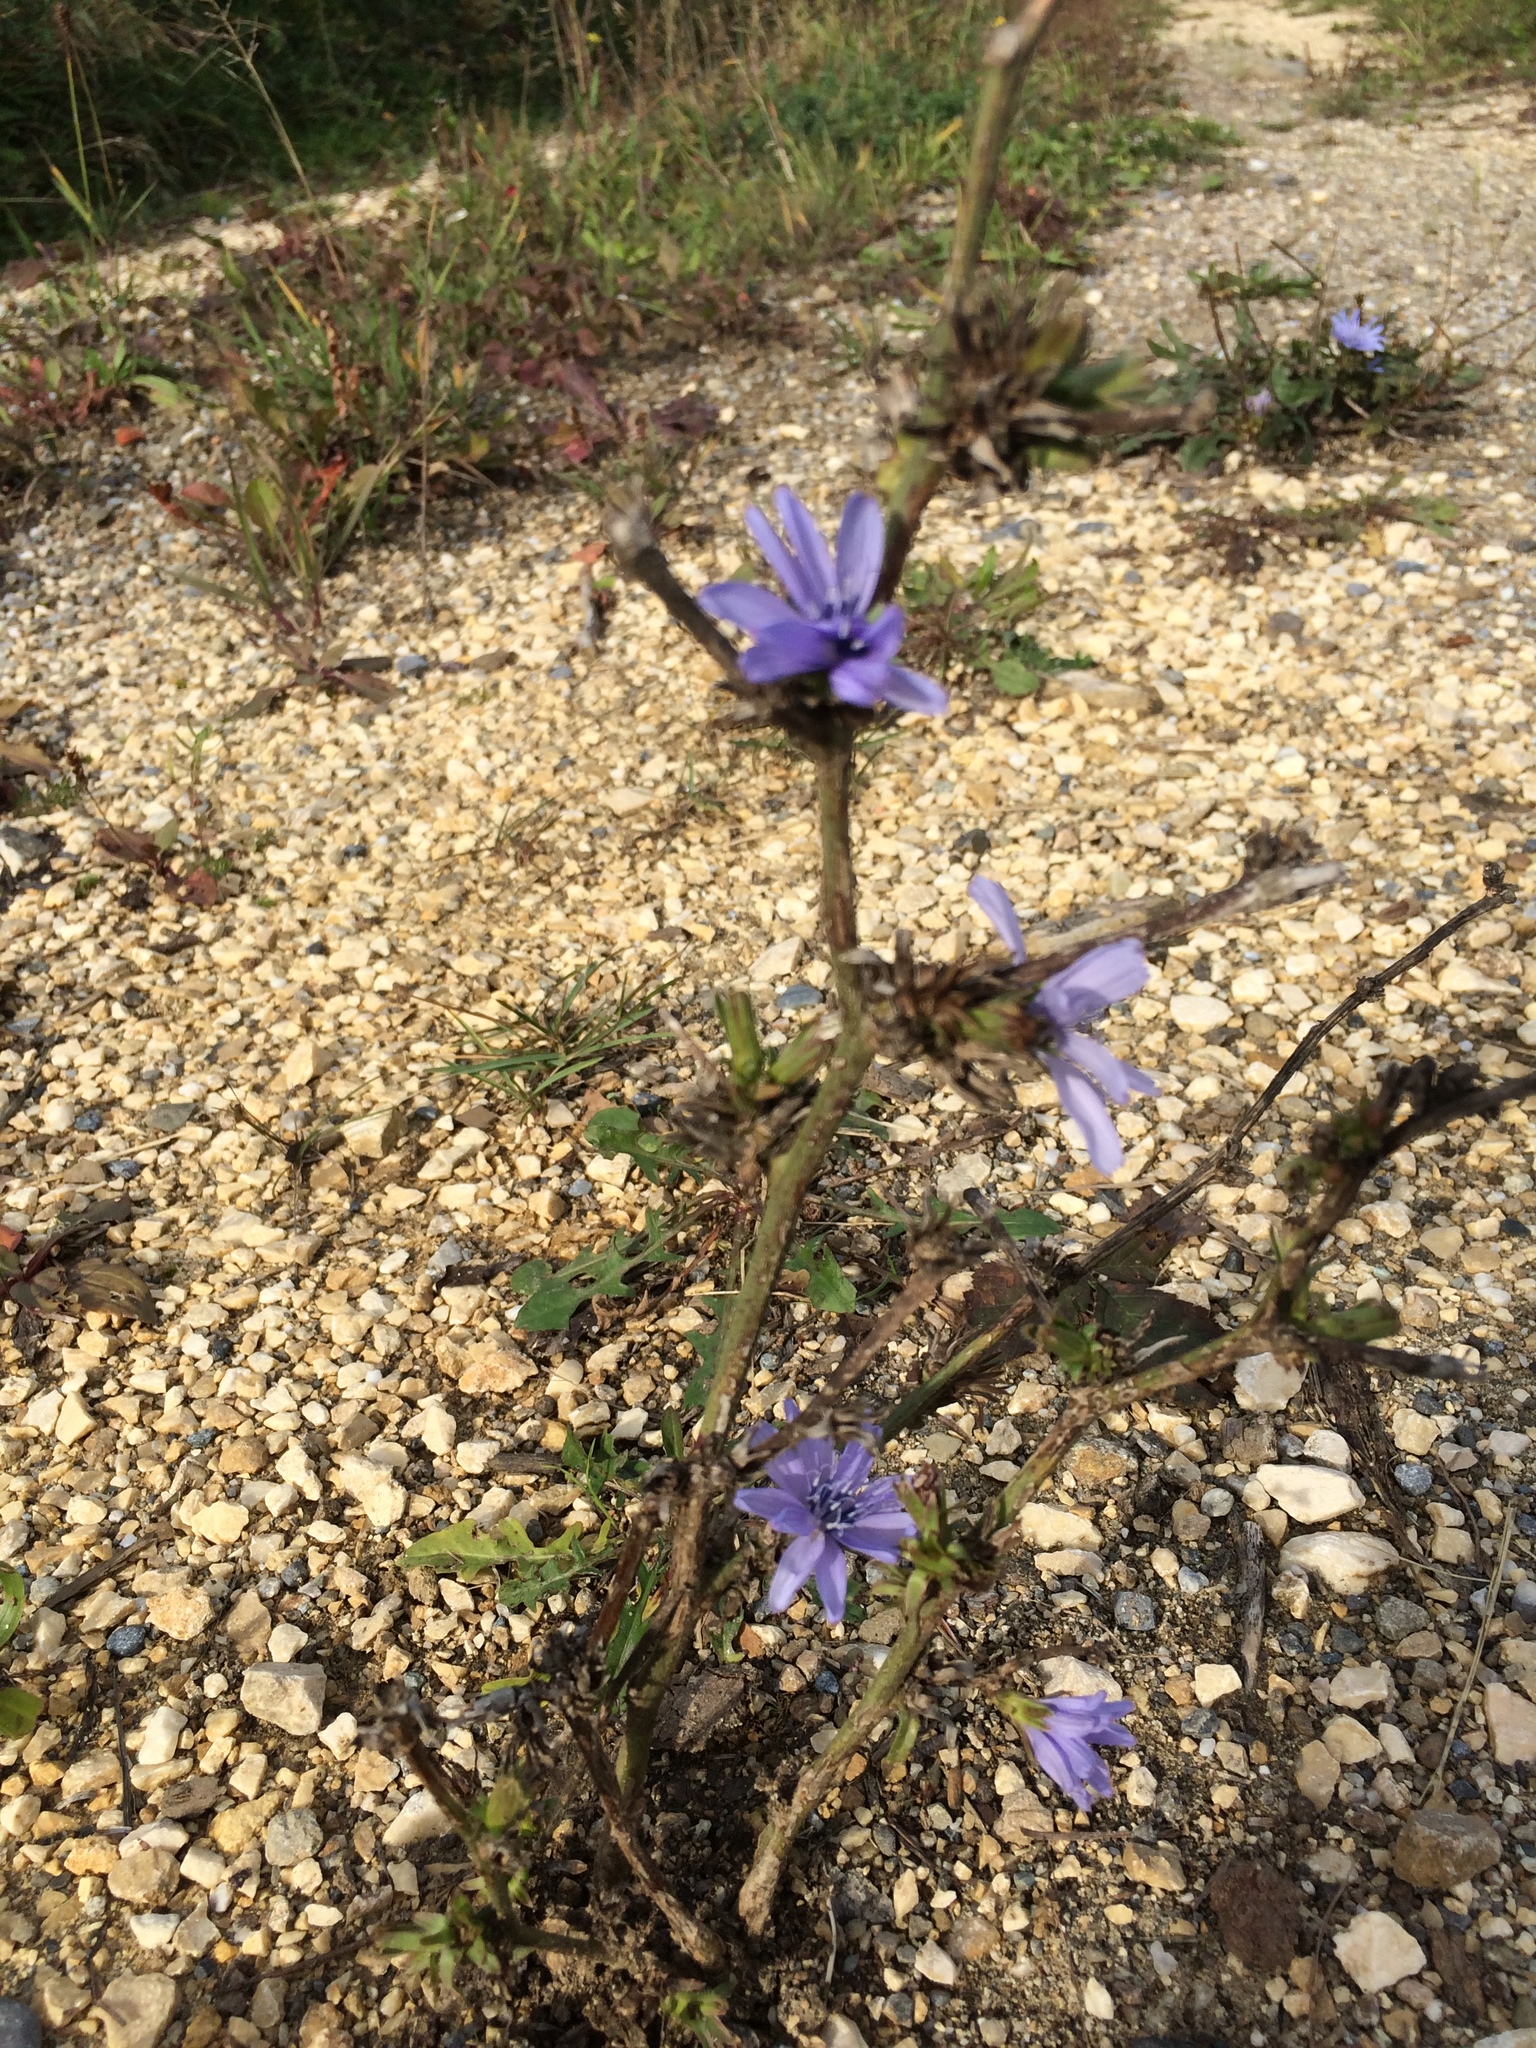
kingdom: Plantae
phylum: Tracheophyta
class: Magnoliopsida
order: Asterales
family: Asteraceae
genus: Cichorium
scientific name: Cichorium intybus
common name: Chicory
